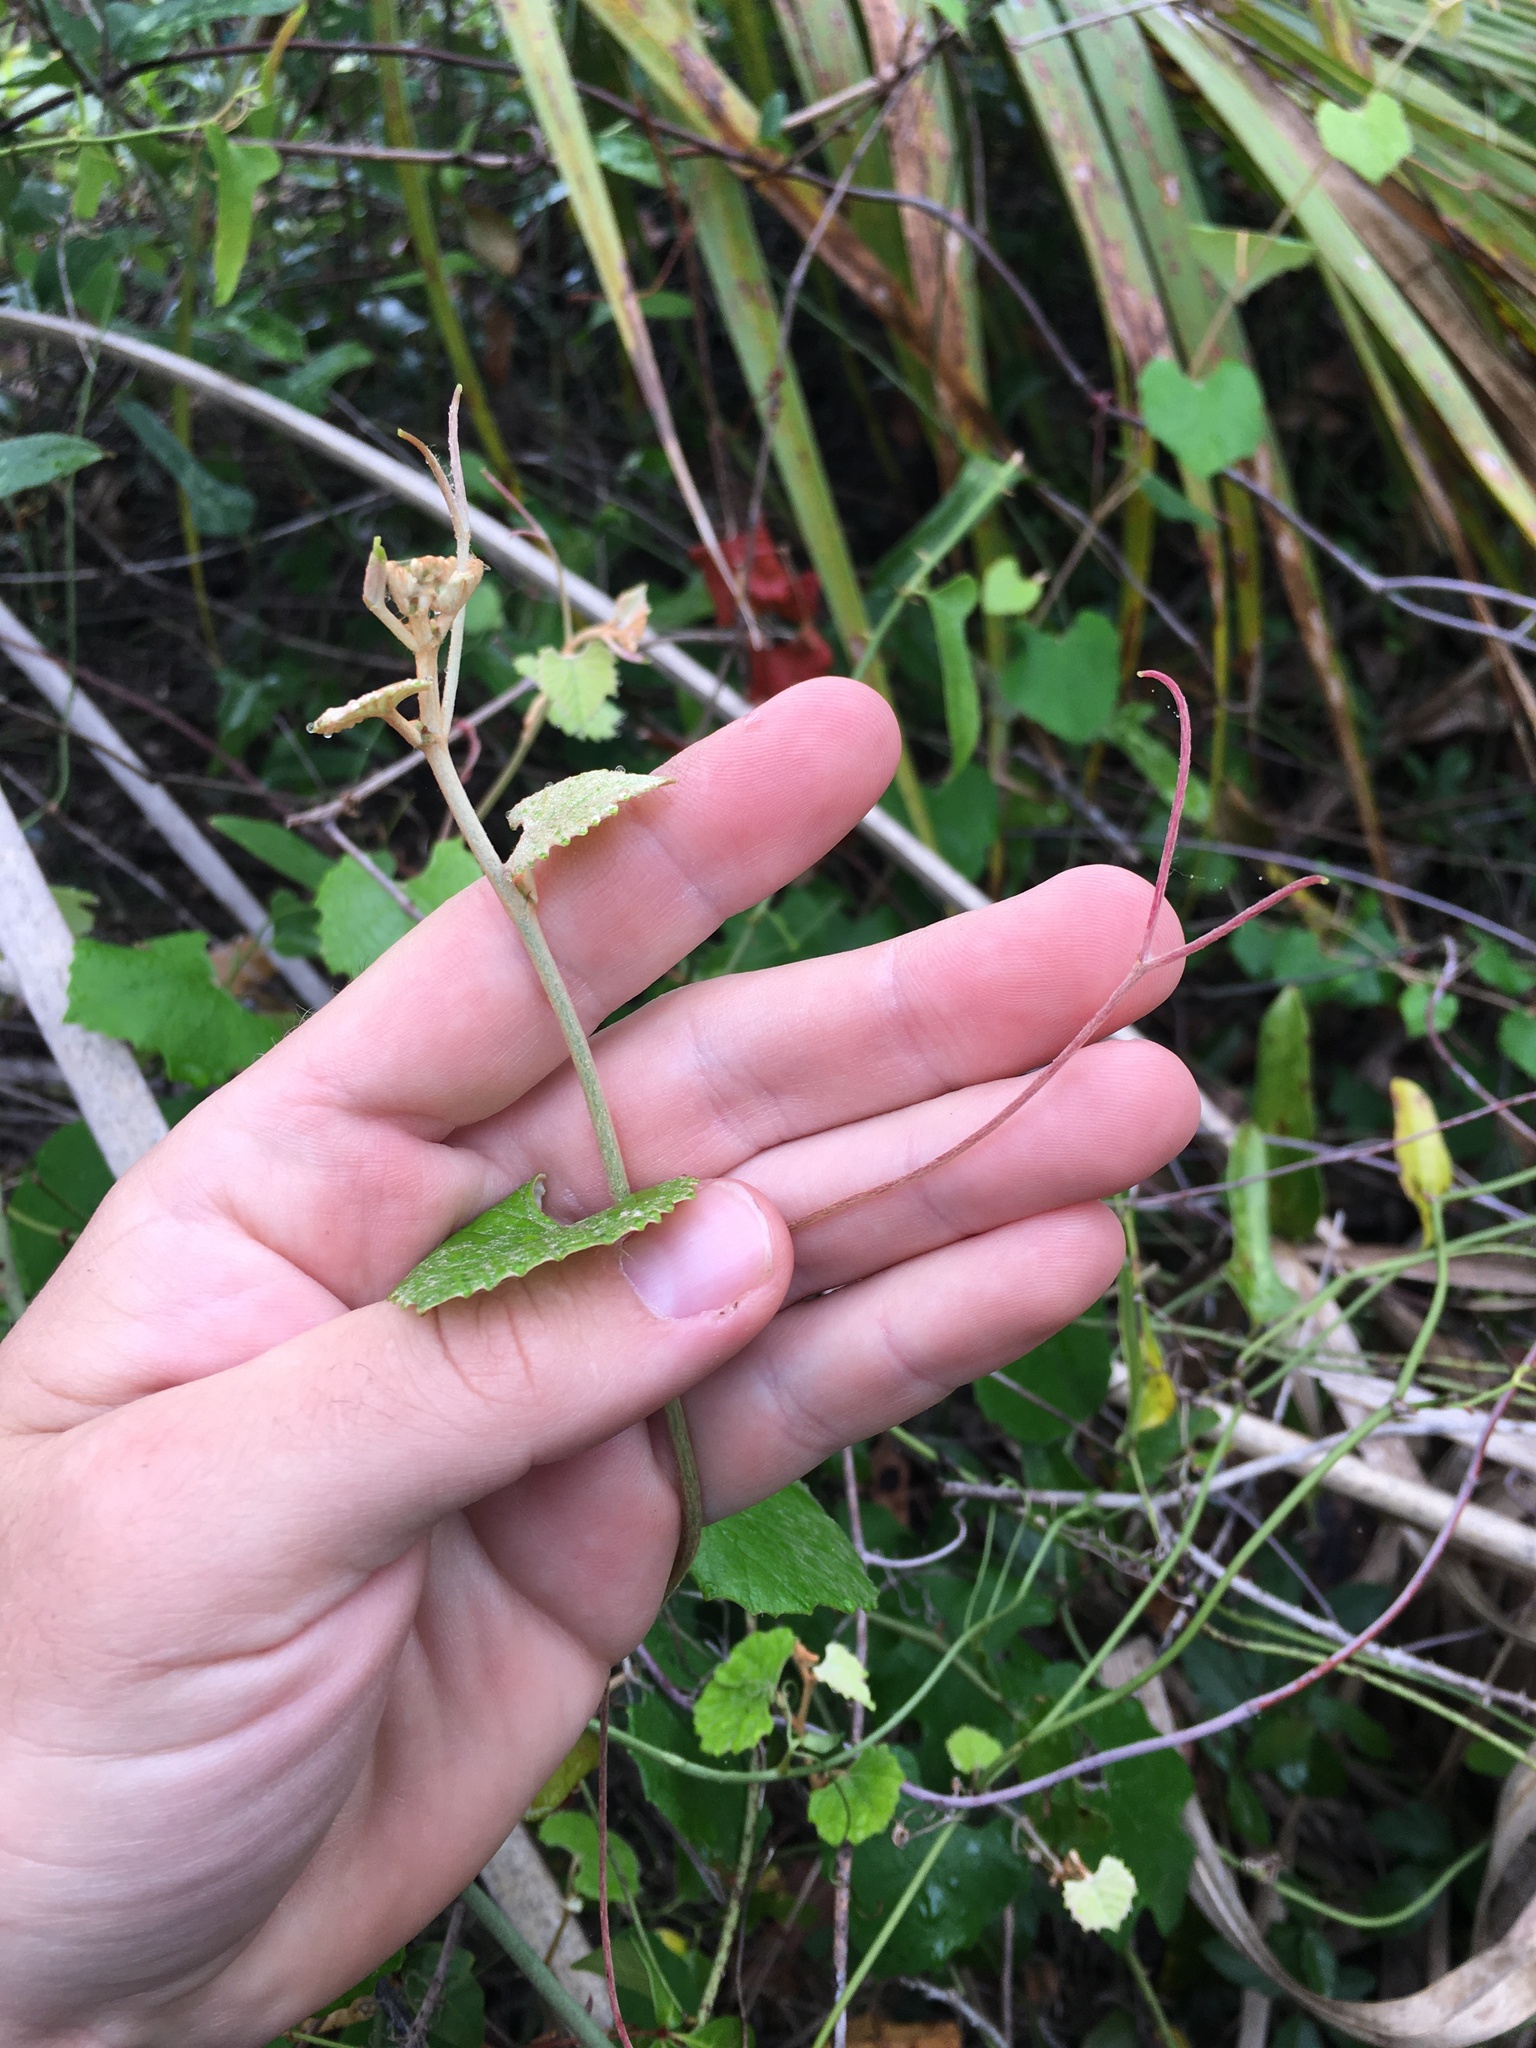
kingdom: Plantae
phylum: Tracheophyta
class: Magnoliopsida
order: Vitales
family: Vitaceae
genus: Vitis
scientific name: Vitis shuttleworthii
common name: Caloosa grape
